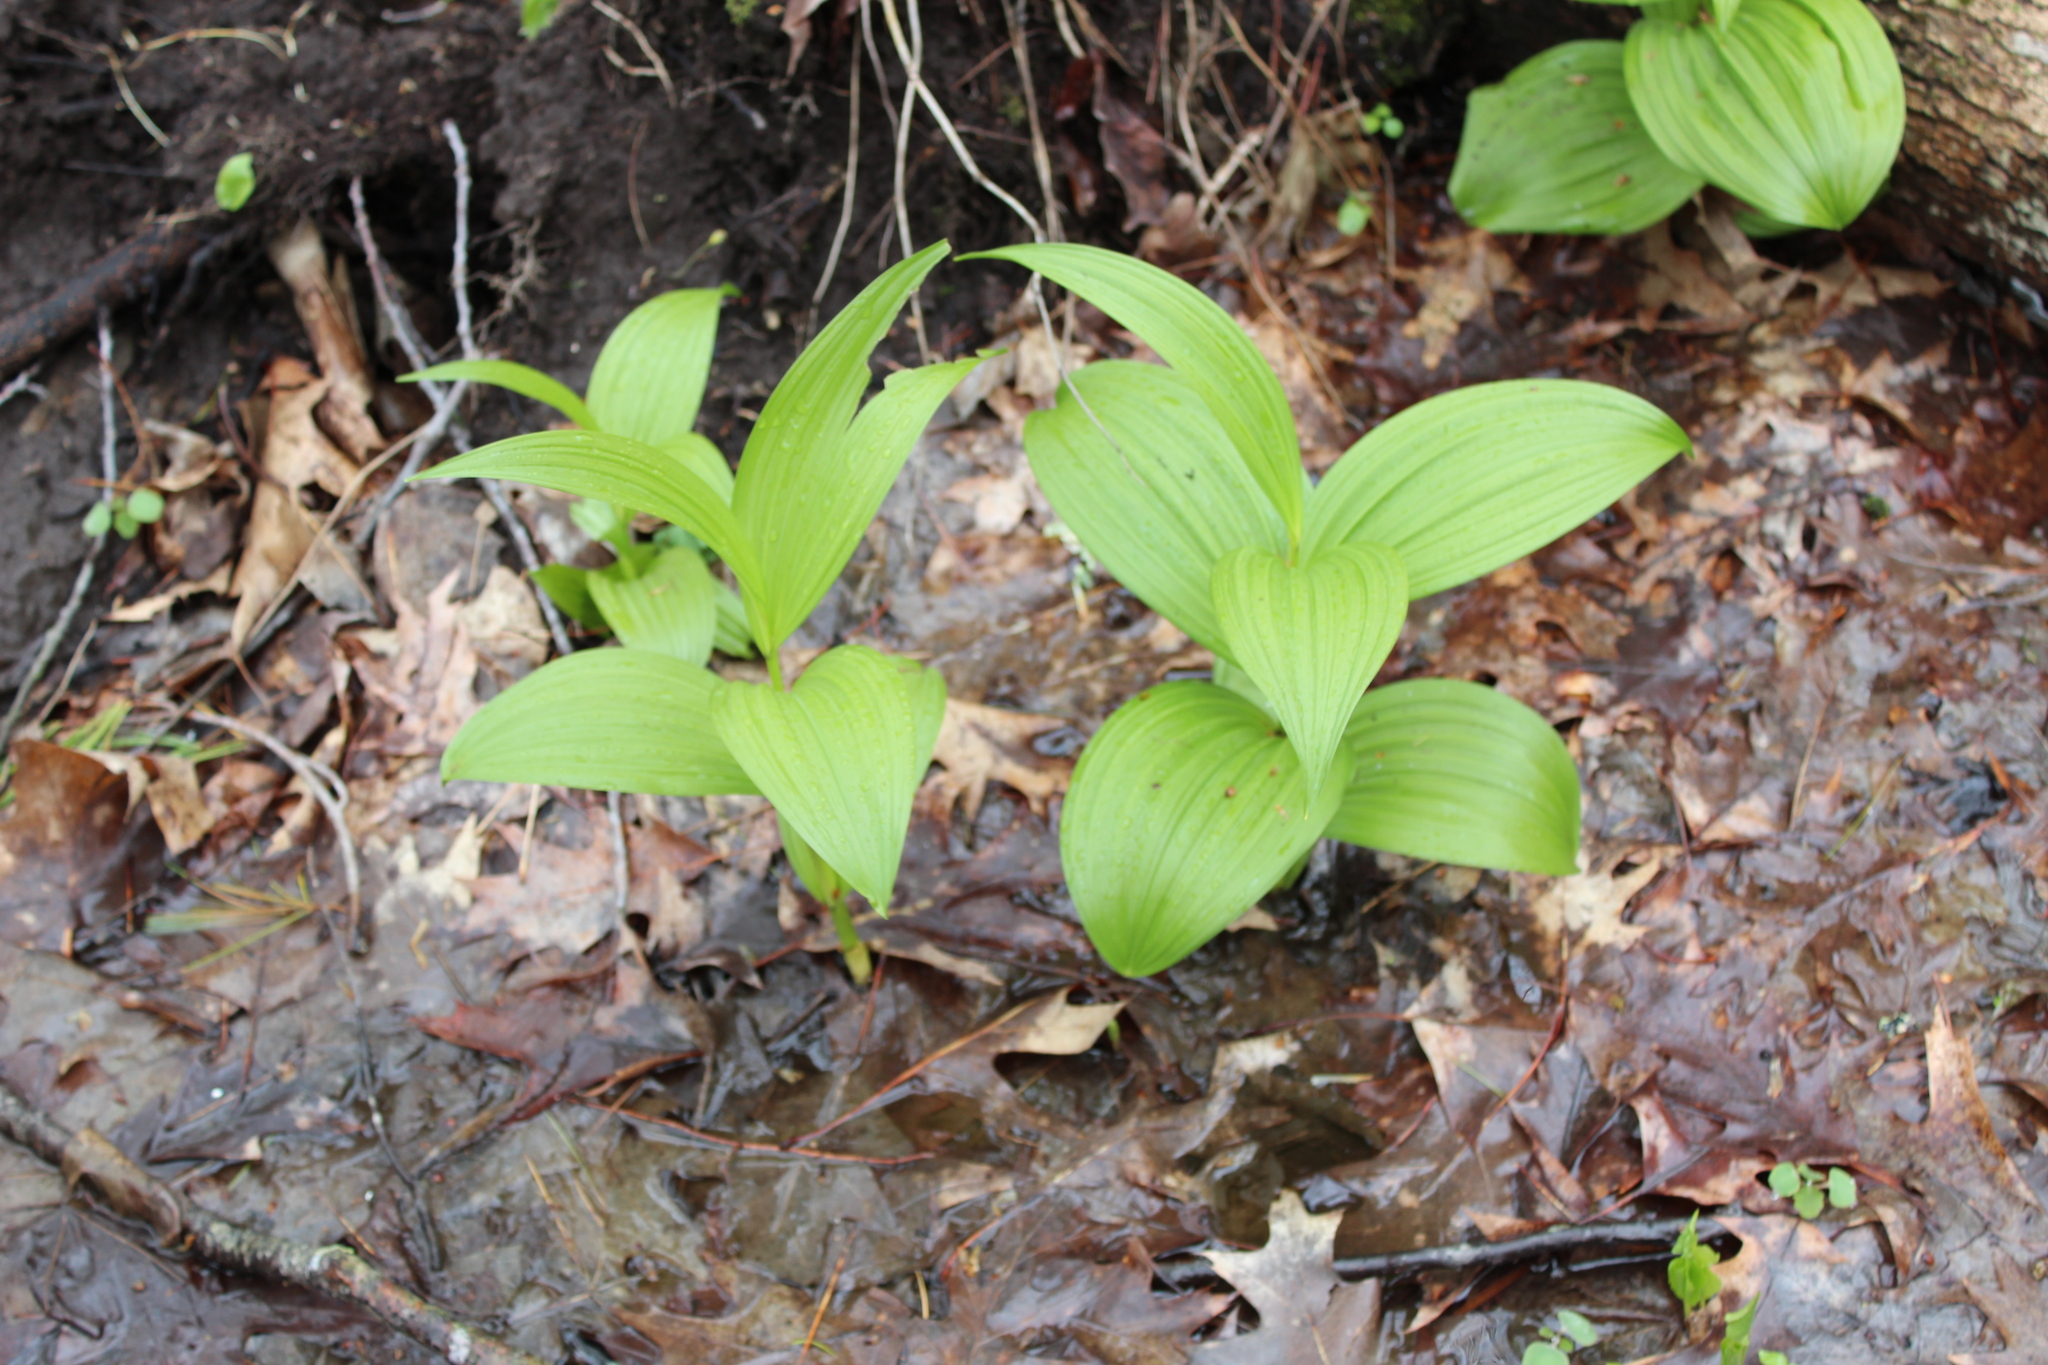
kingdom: Plantae
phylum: Tracheophyta
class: Liliopsida
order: Liliales
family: Melanthiaceae
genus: Veratrum
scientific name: Veratrum viride
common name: American false hellebore
